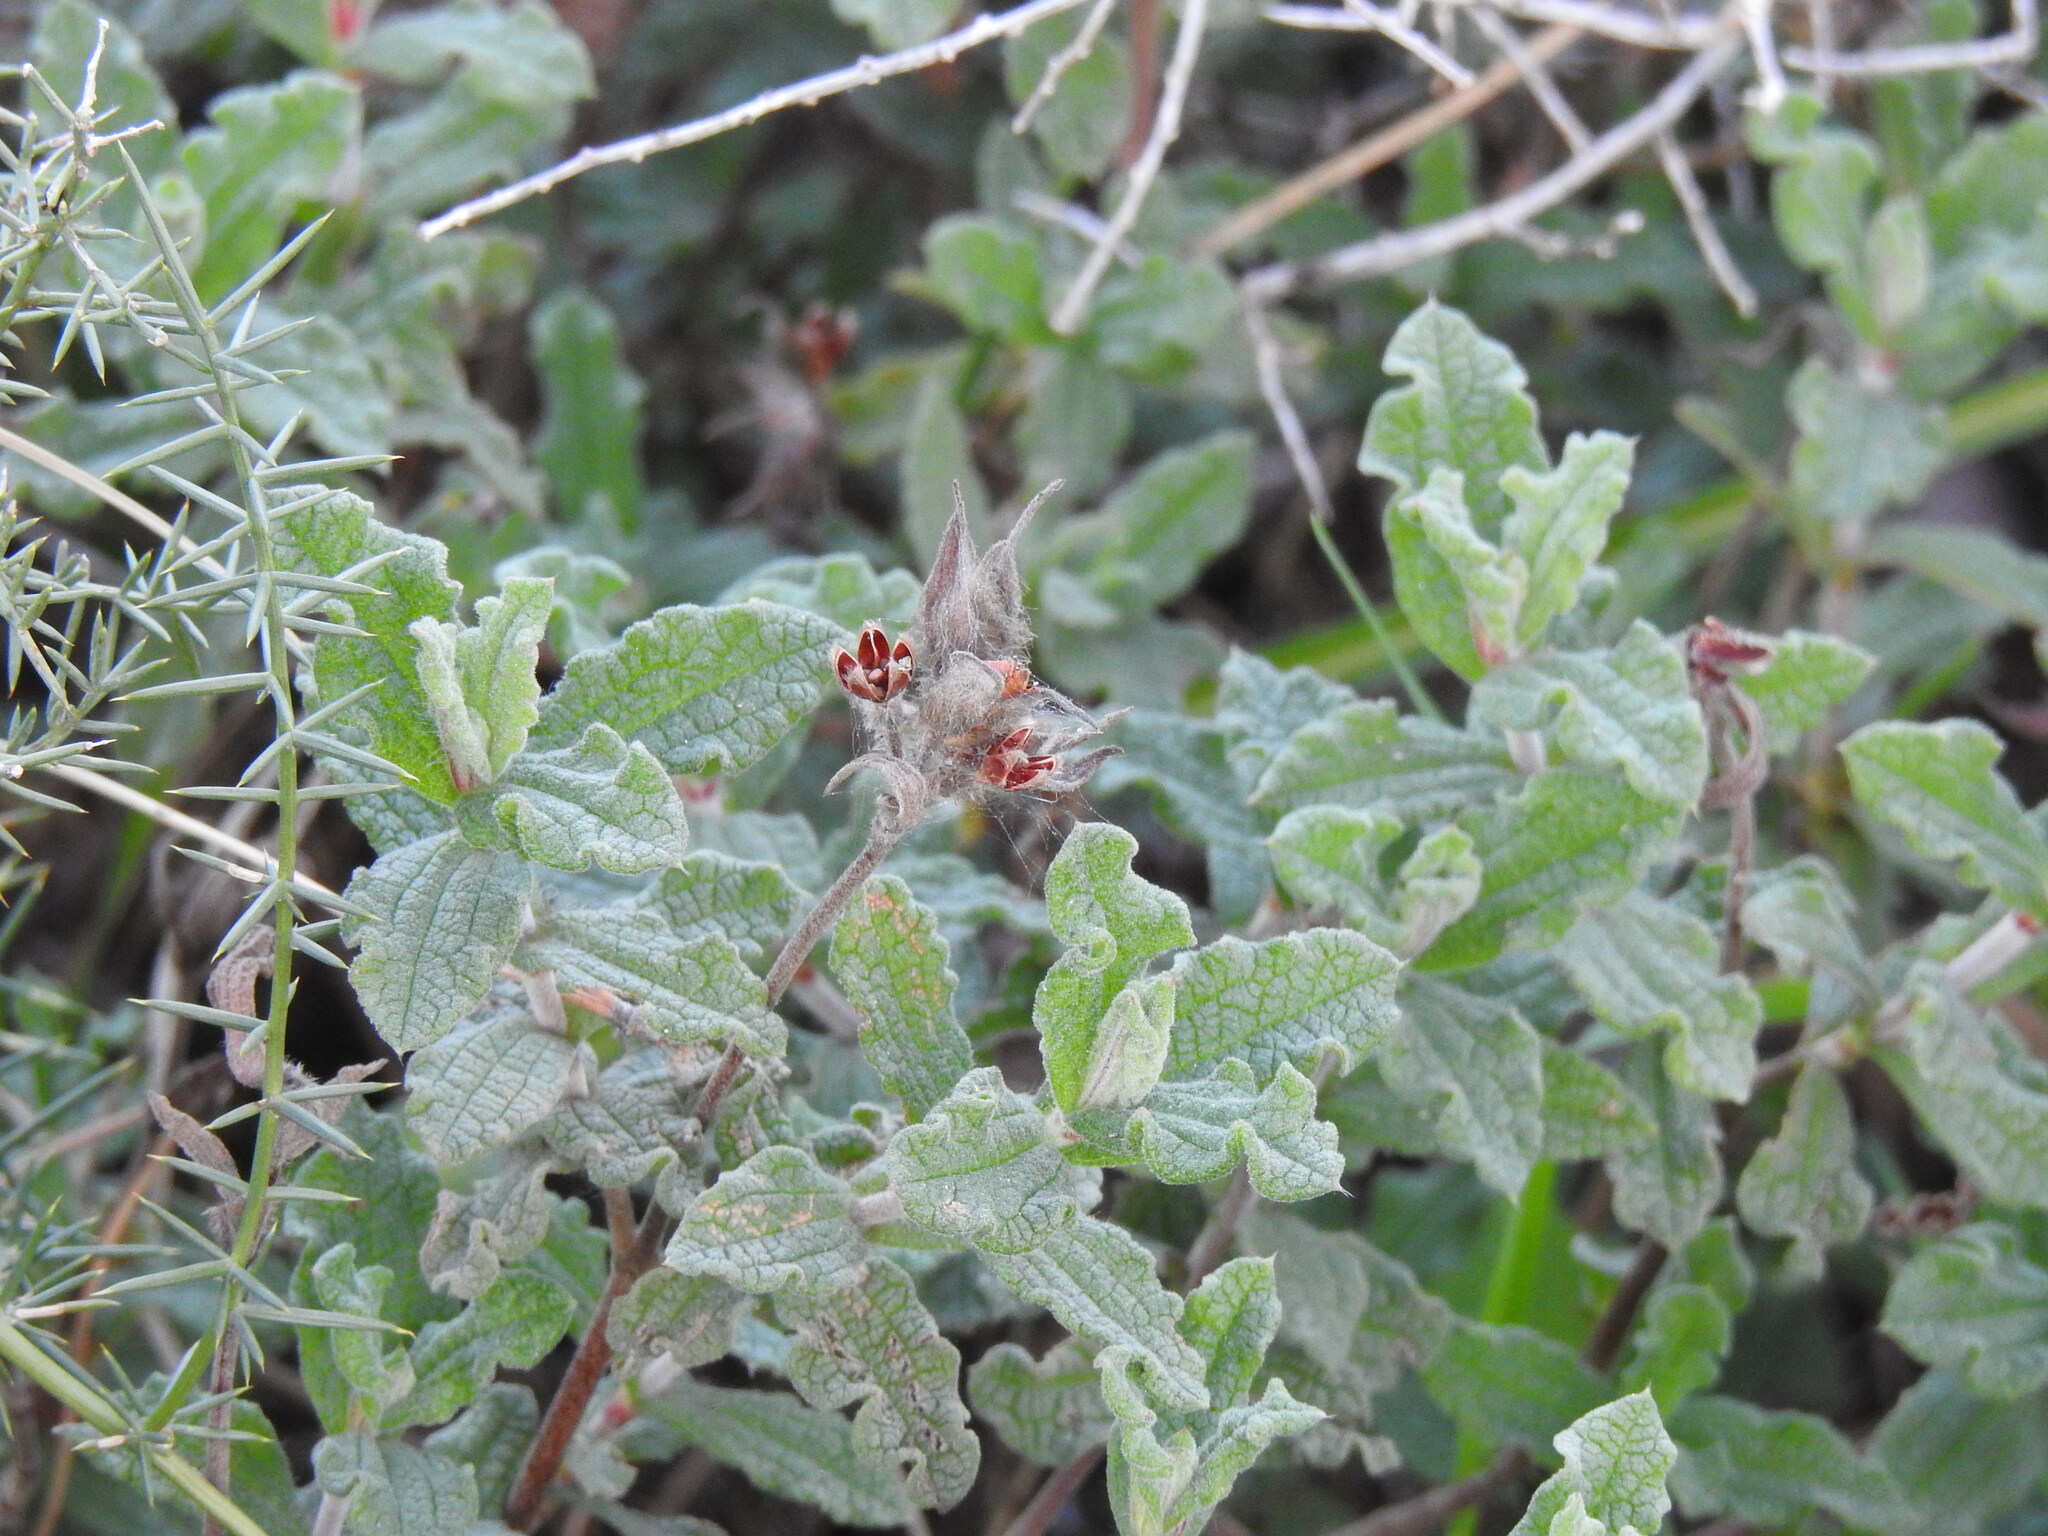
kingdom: Plantae
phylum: Tracheophyta
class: Magnoliopsida
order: Malvales
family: Cistaceae
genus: Cistus
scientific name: Cistus crispus
